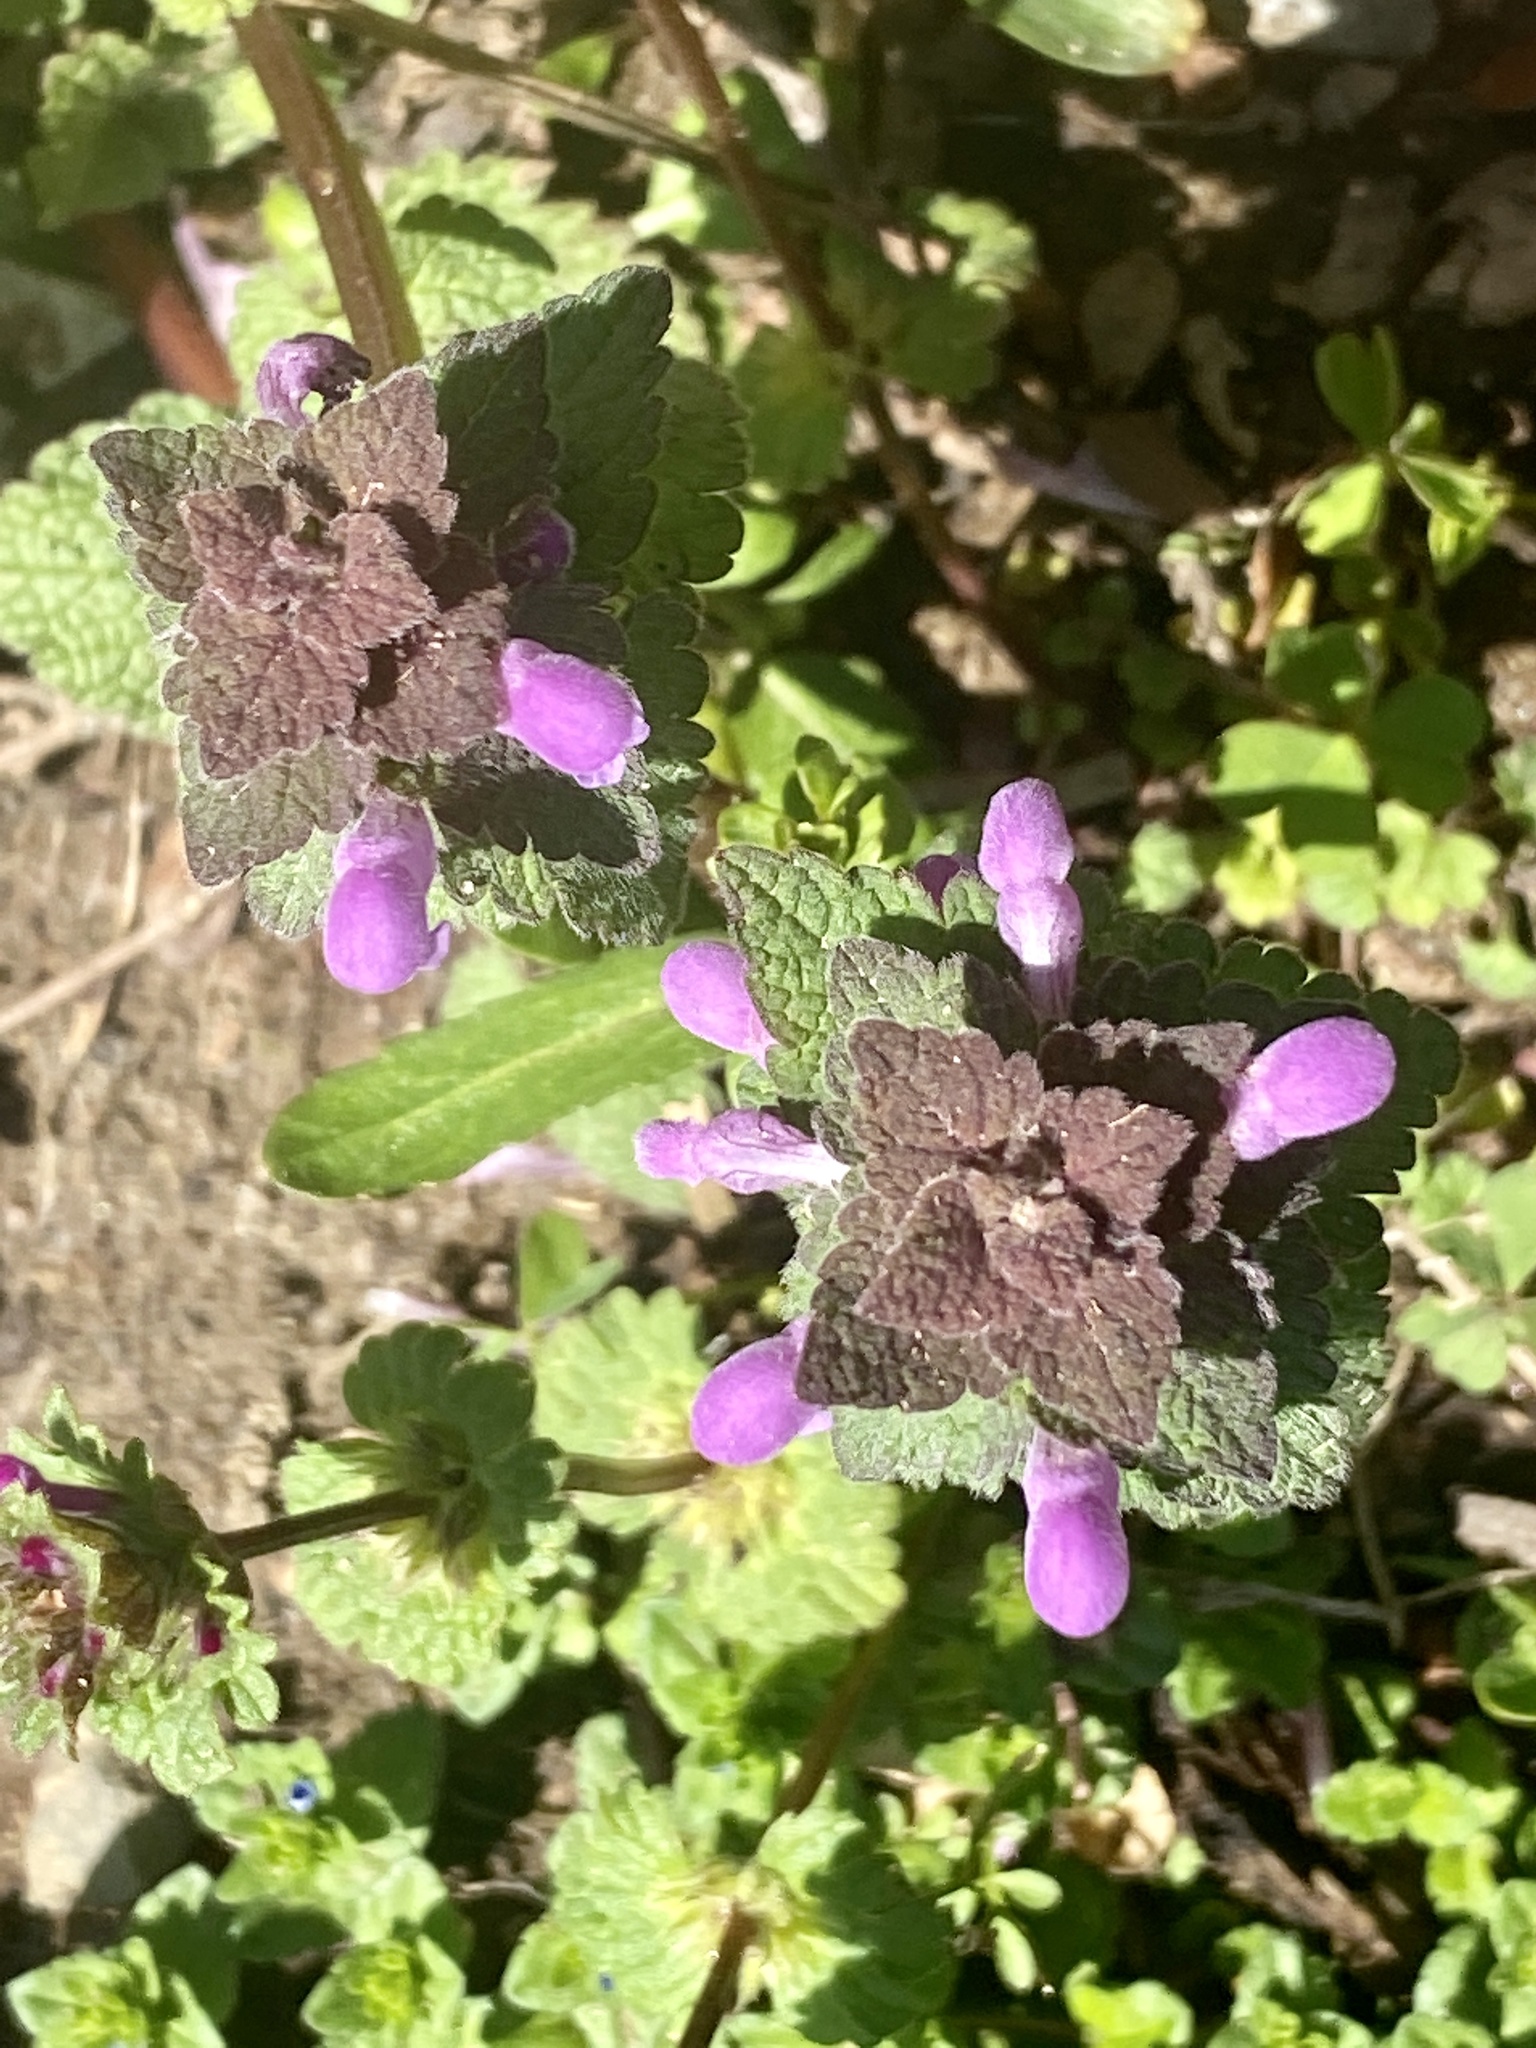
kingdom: Plantae
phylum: Tracheophyta
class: Magnoliopsida
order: Lamiales
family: Lamiaceae
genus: Lamium
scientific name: Lamium purpureum
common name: Red dead-nettle
